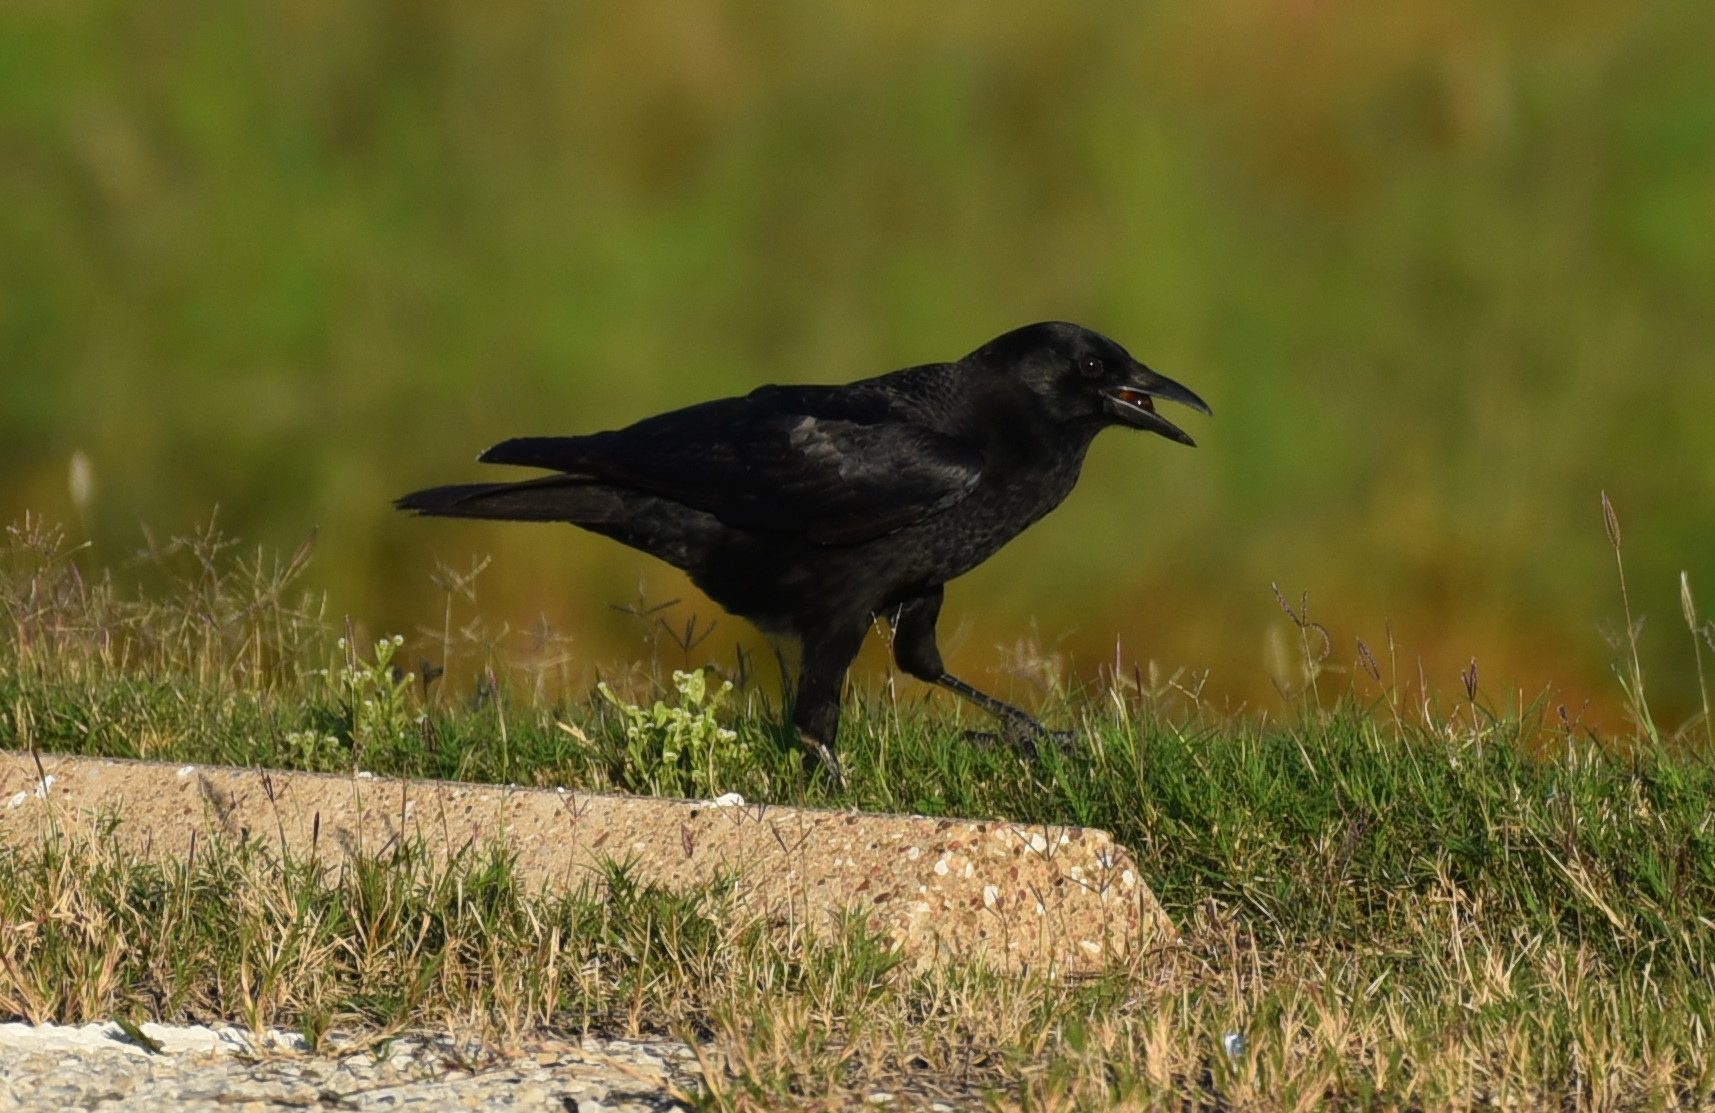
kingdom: Animalia
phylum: Chordata
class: Aves
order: Passeriformes
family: Corvidae
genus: Corvus
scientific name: Corvus brachyrhynchos
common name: American crow
